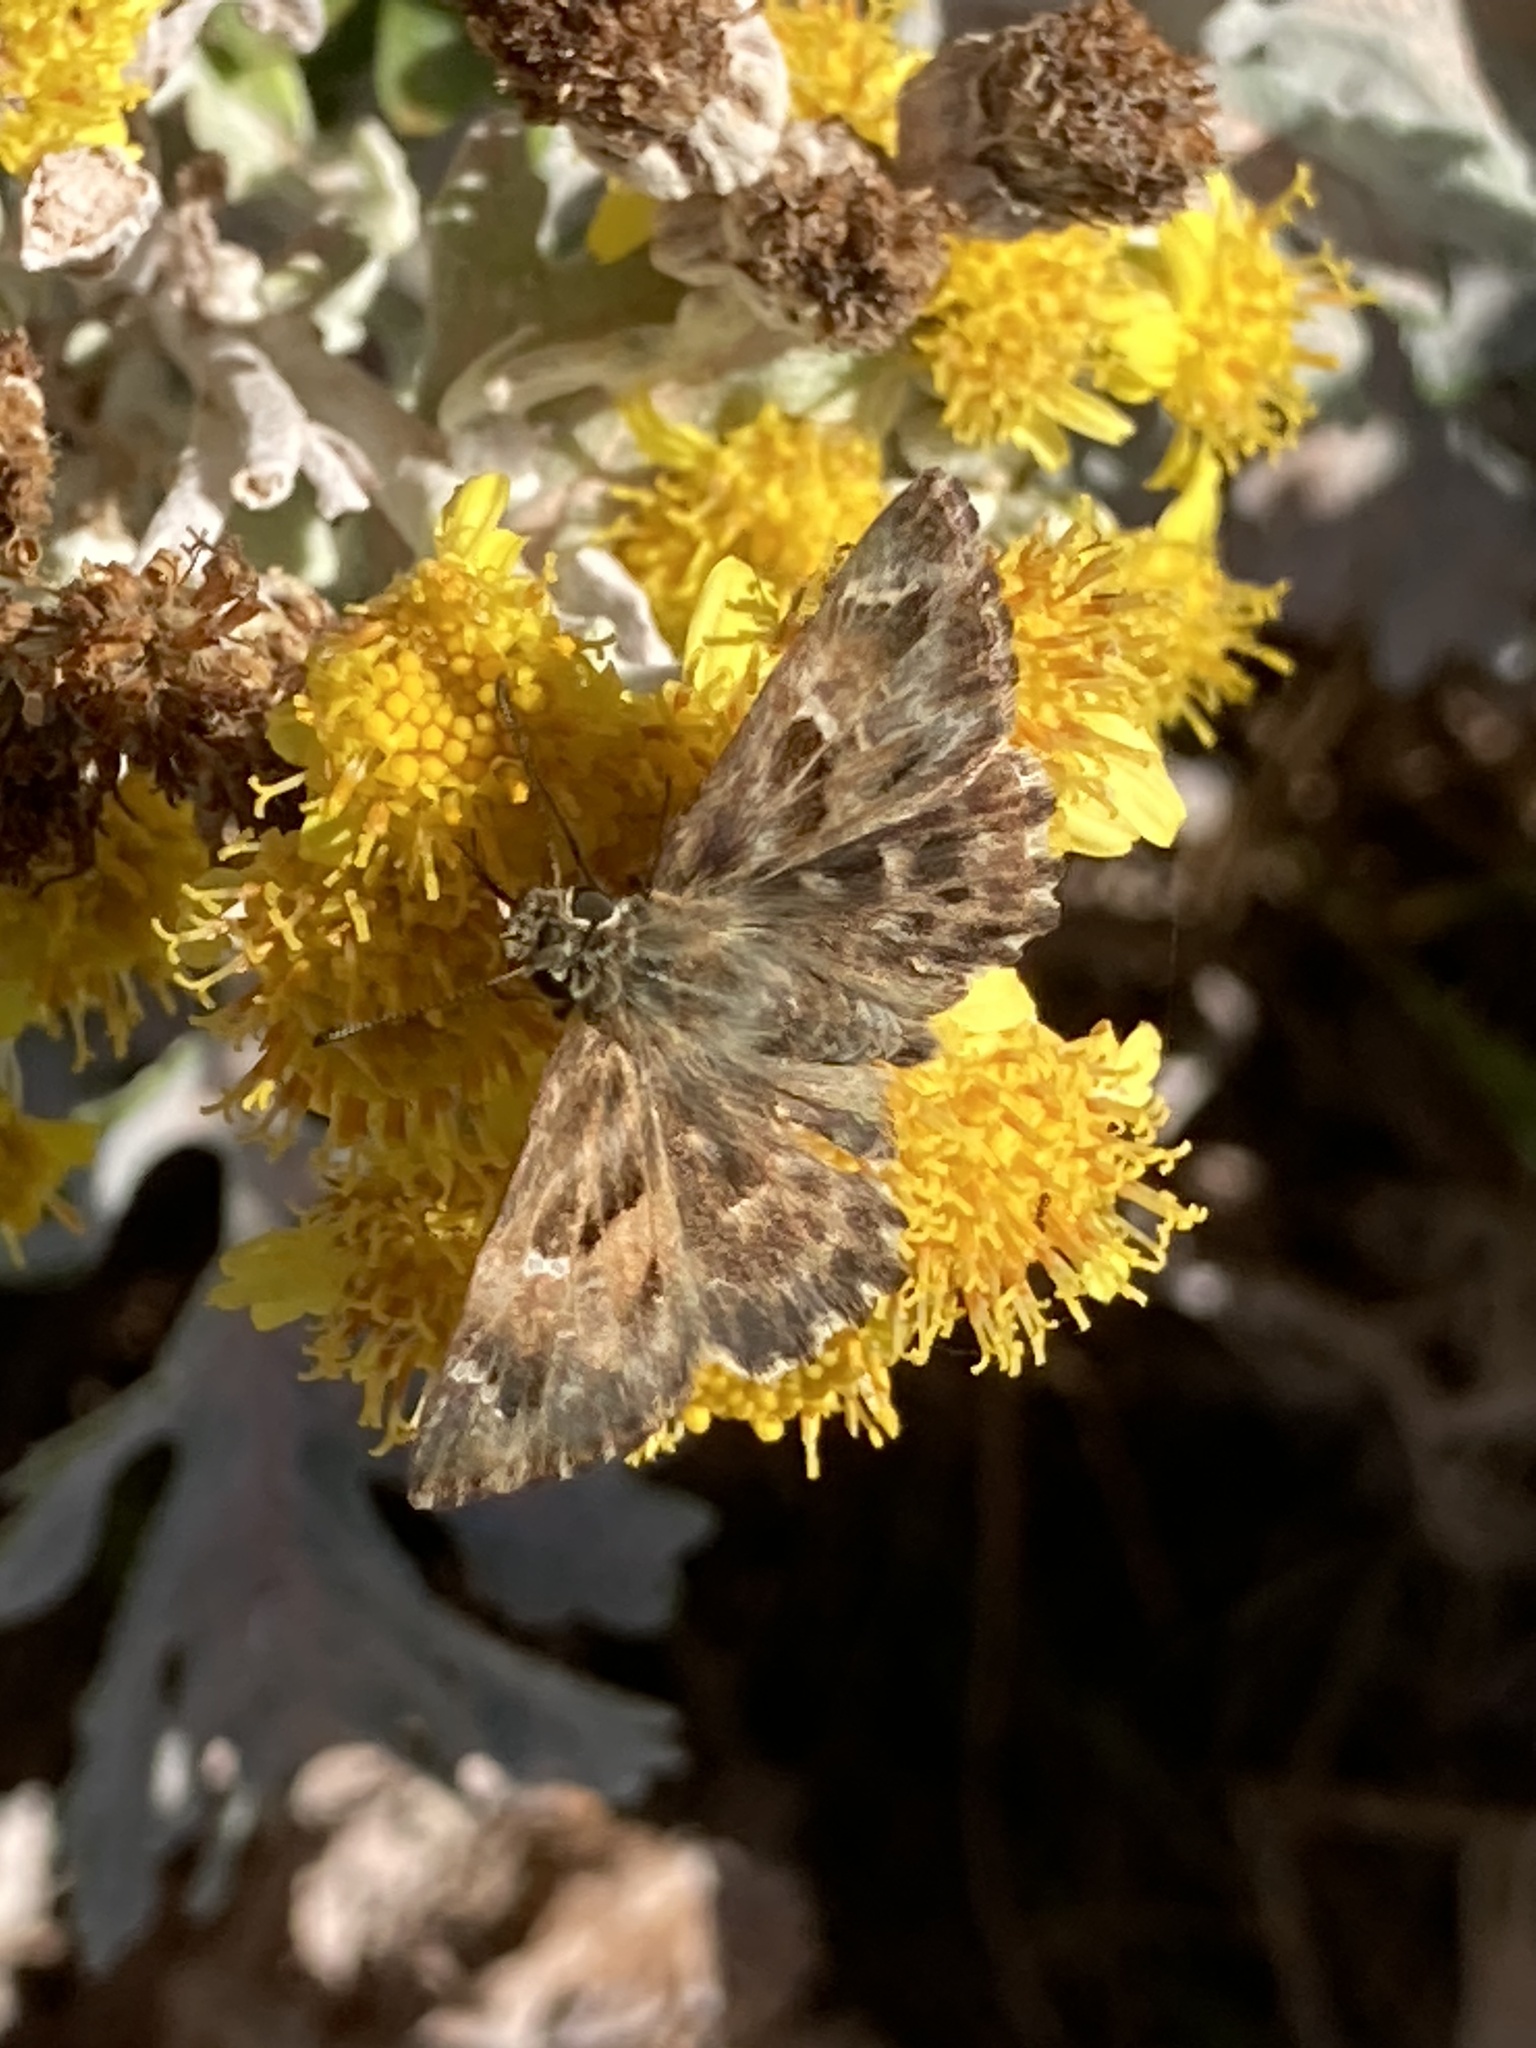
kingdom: Animalia
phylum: Arthropoda
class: Insecta
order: Lepidoptera
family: Hesperiidae
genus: Carcharodus
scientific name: Carcharodus alceae
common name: Mallow skipper
